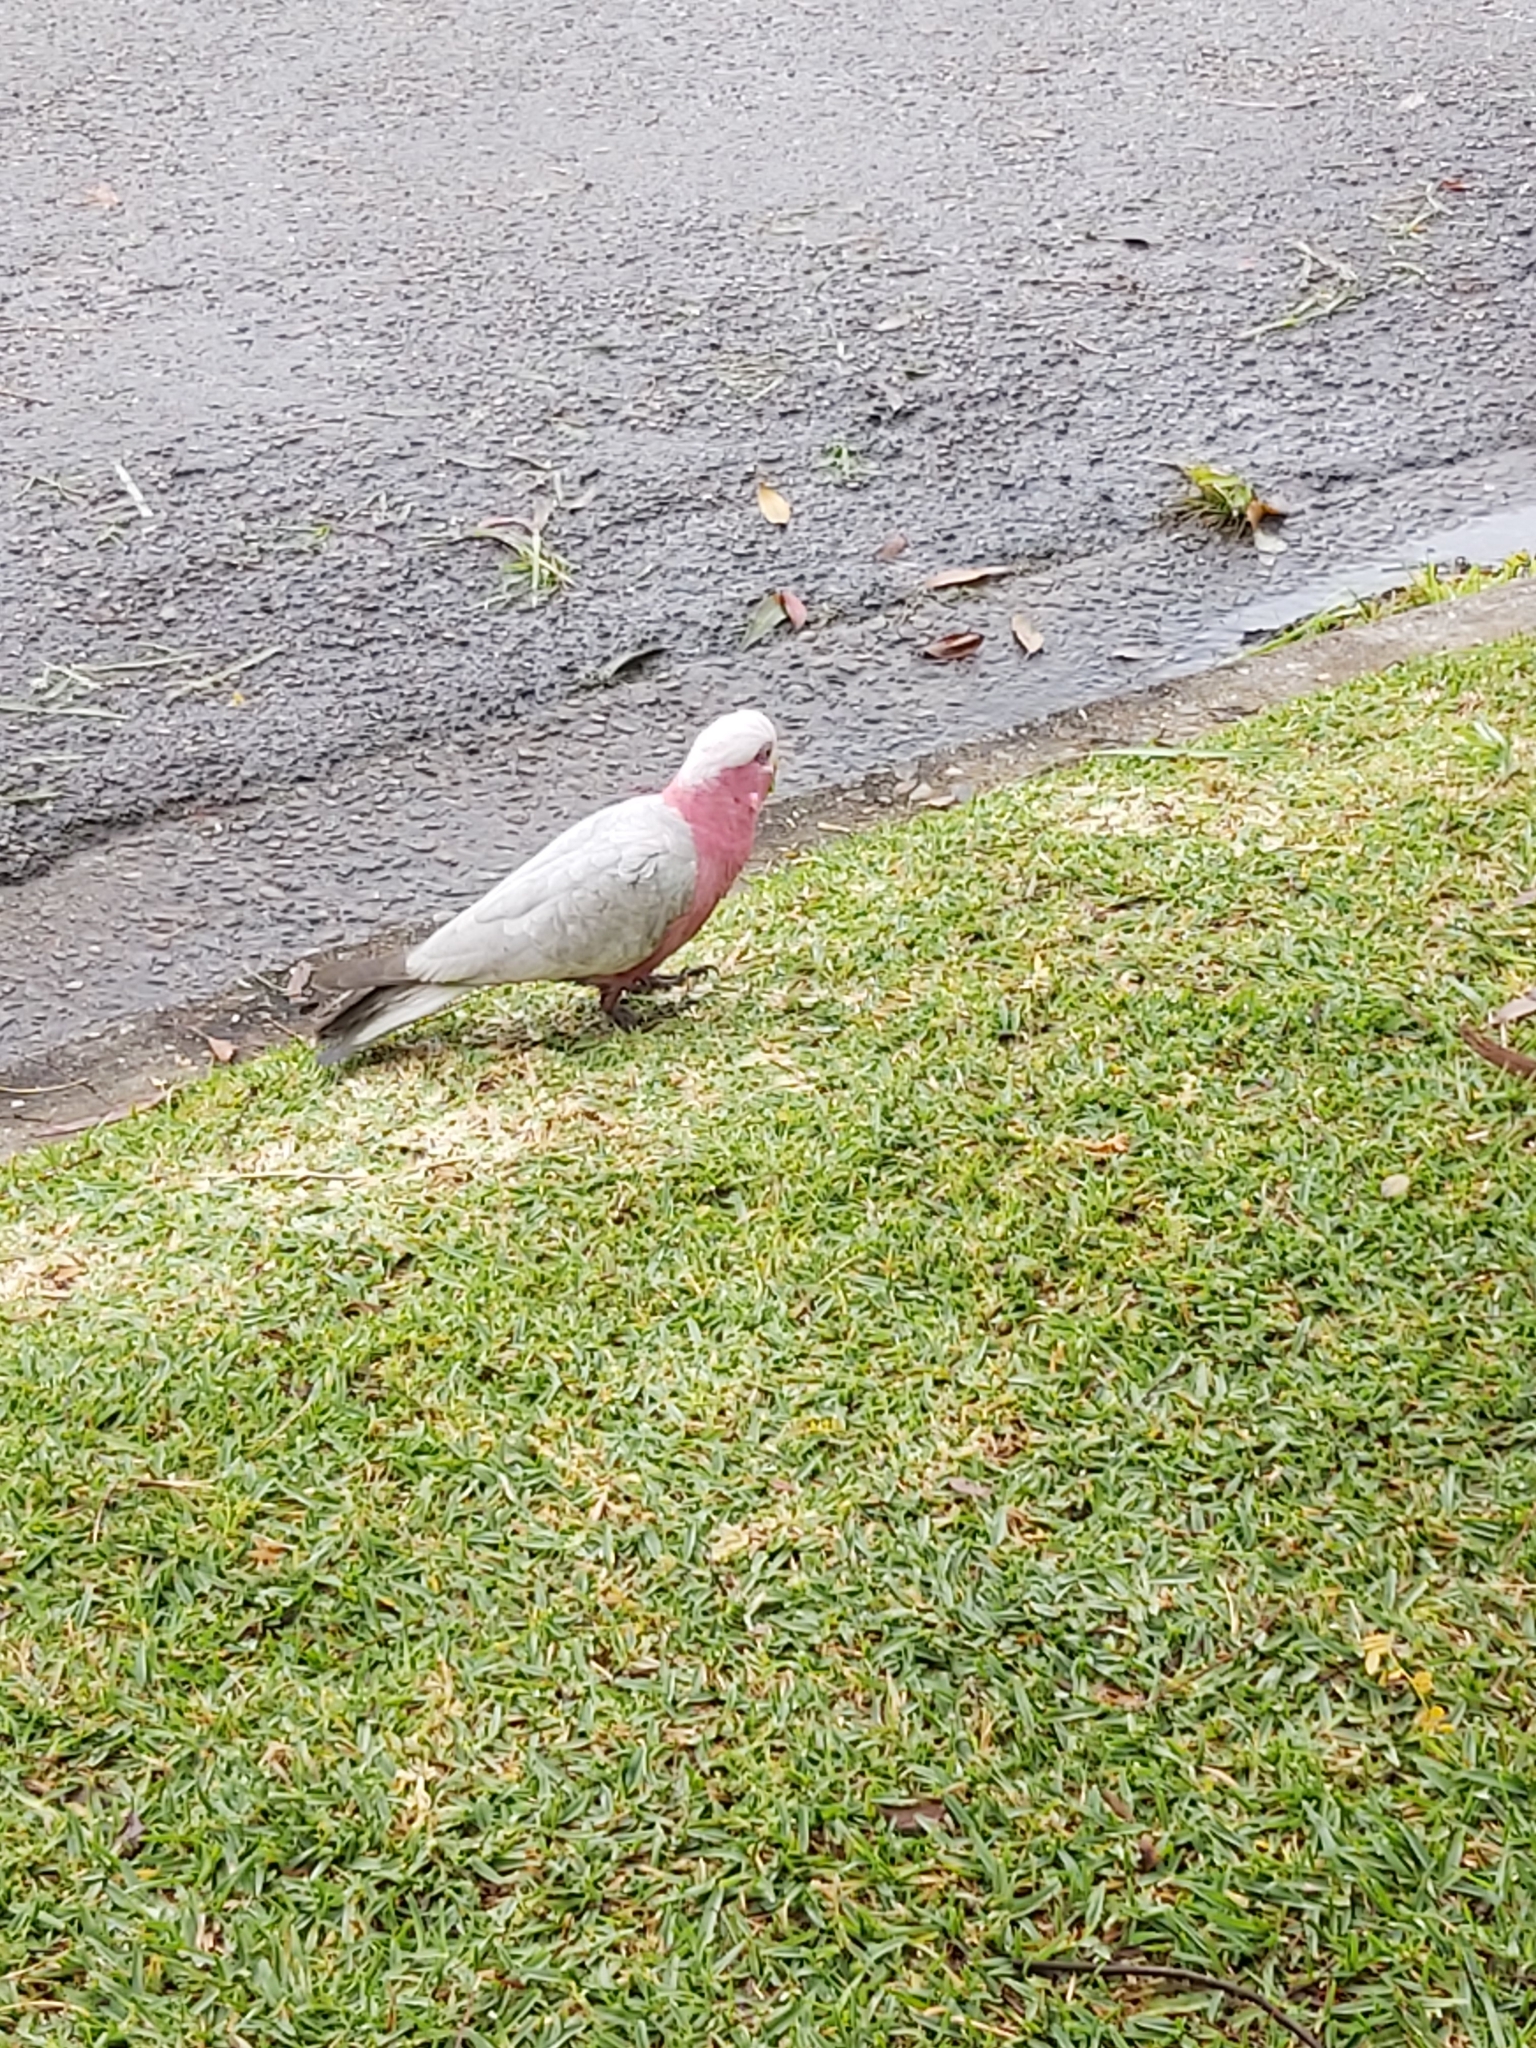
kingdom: Animalia
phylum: Chordata
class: Aves
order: Psittaciformes
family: Psittacidae
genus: Eolophus
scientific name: Eolophus roseicapilla
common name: Galah
